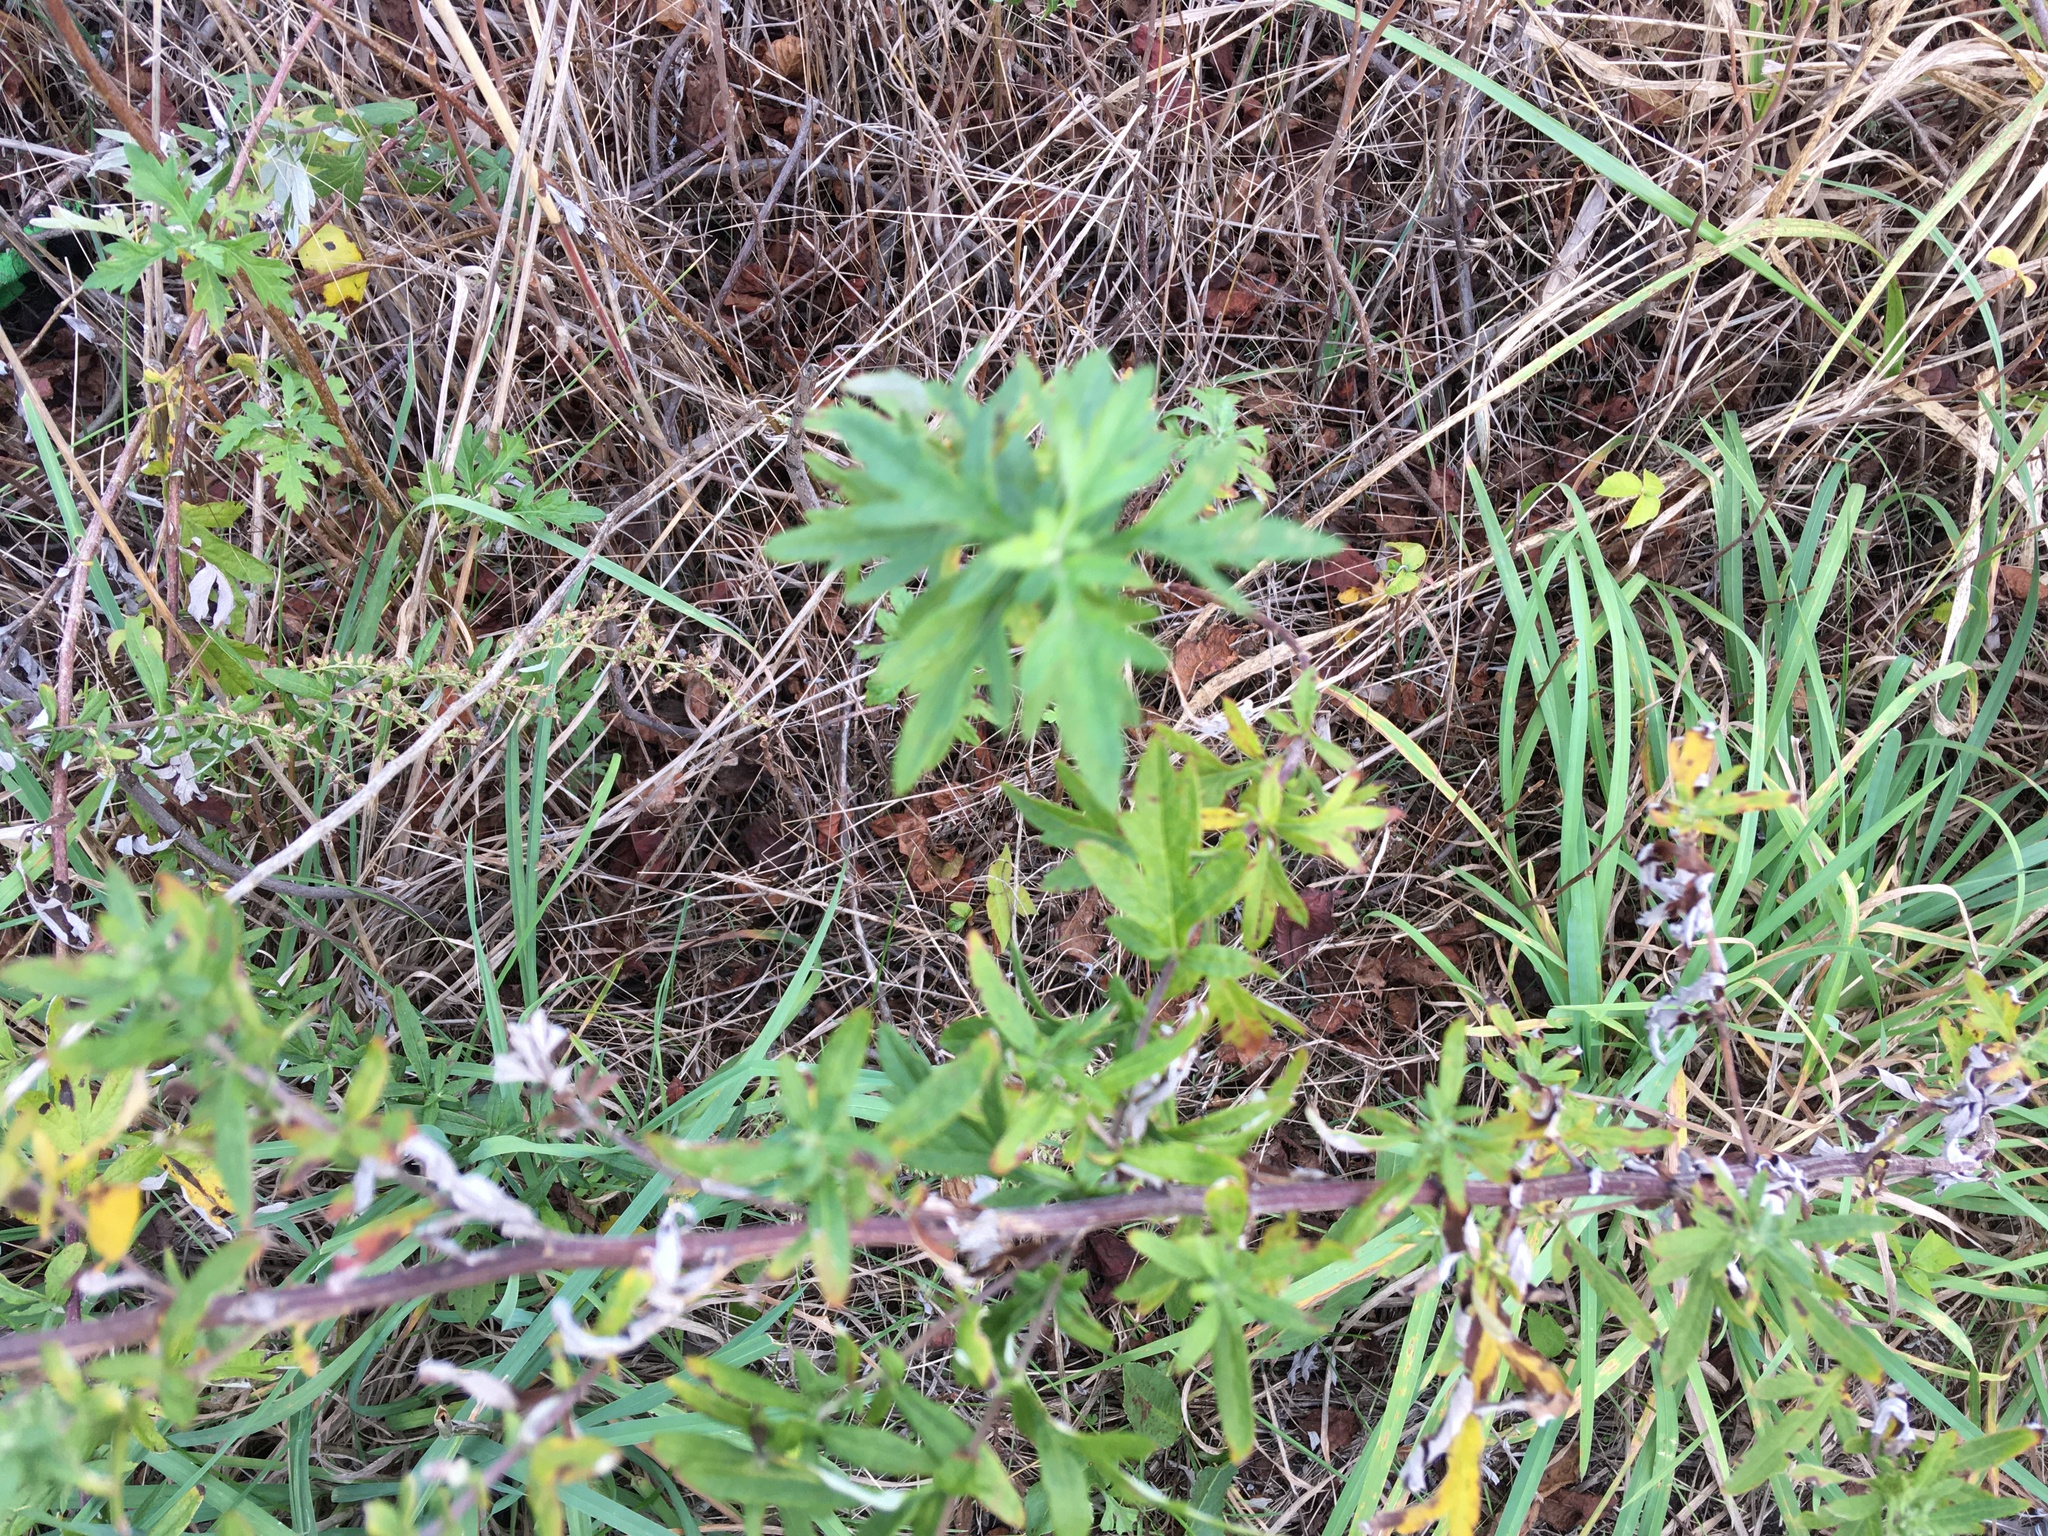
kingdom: Plantae
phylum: Tracheophyta
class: Magnoliopsida
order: Asterales
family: Asteraceae
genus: Artemisia
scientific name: Artemisia vulgaris
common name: Mugwort
